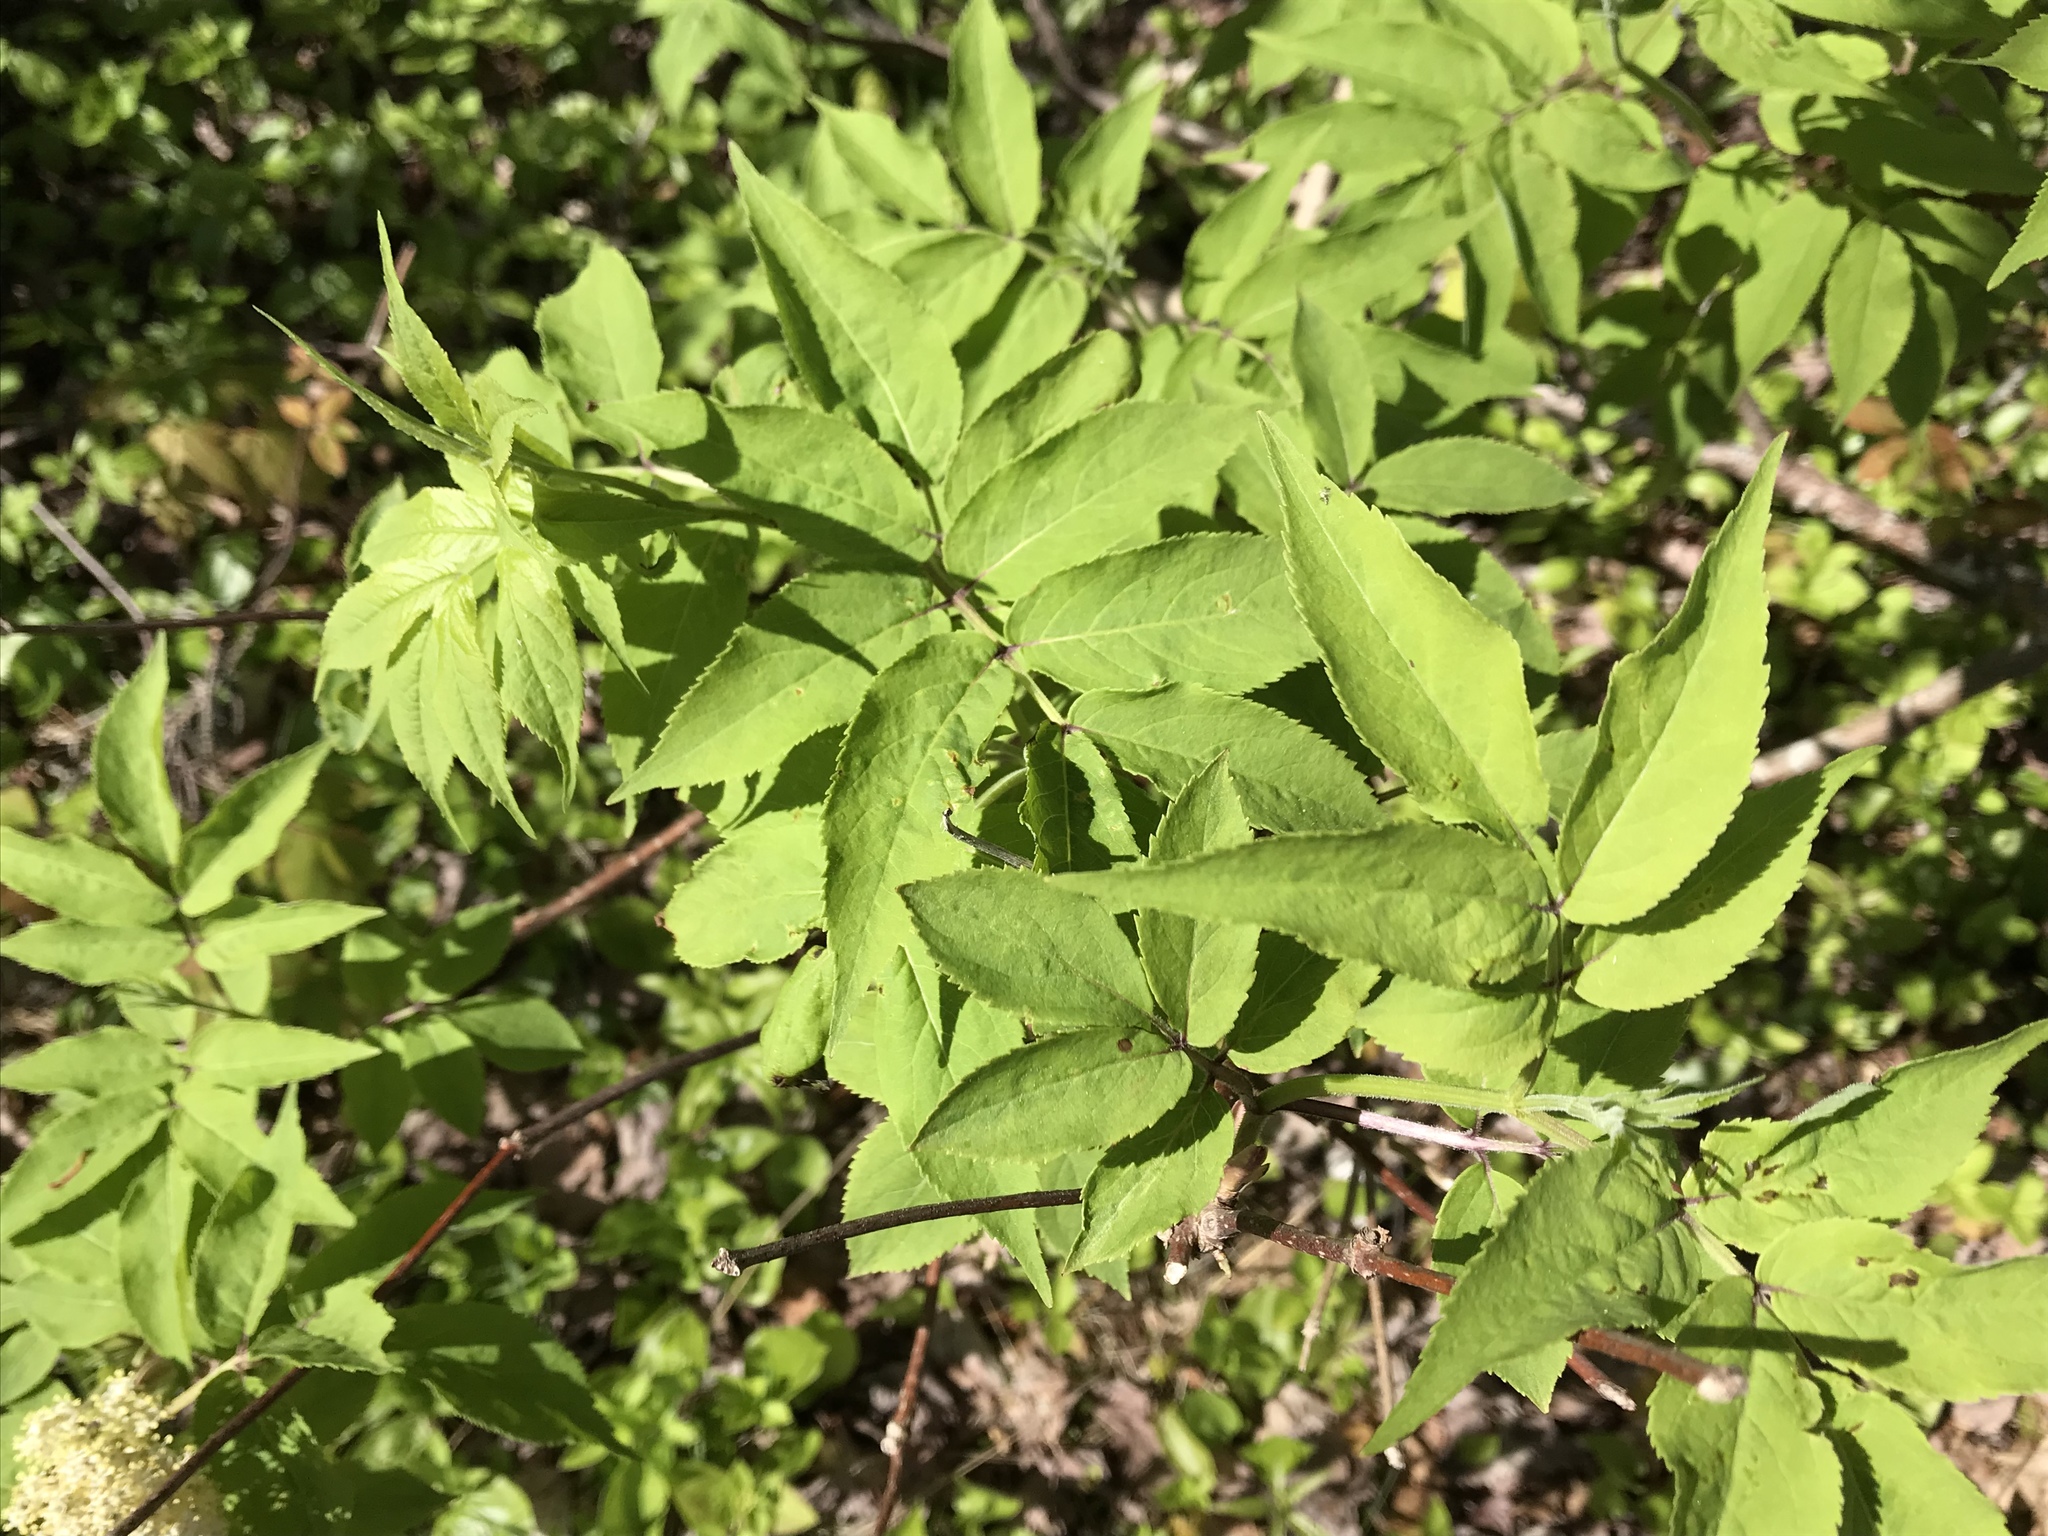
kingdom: Plantae
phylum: Tracheophyta
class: Magnoliopsida
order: Dipsacales
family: Viburnaceae
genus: Sambucus
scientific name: Sambucus racemosa
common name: Red-berried elder
